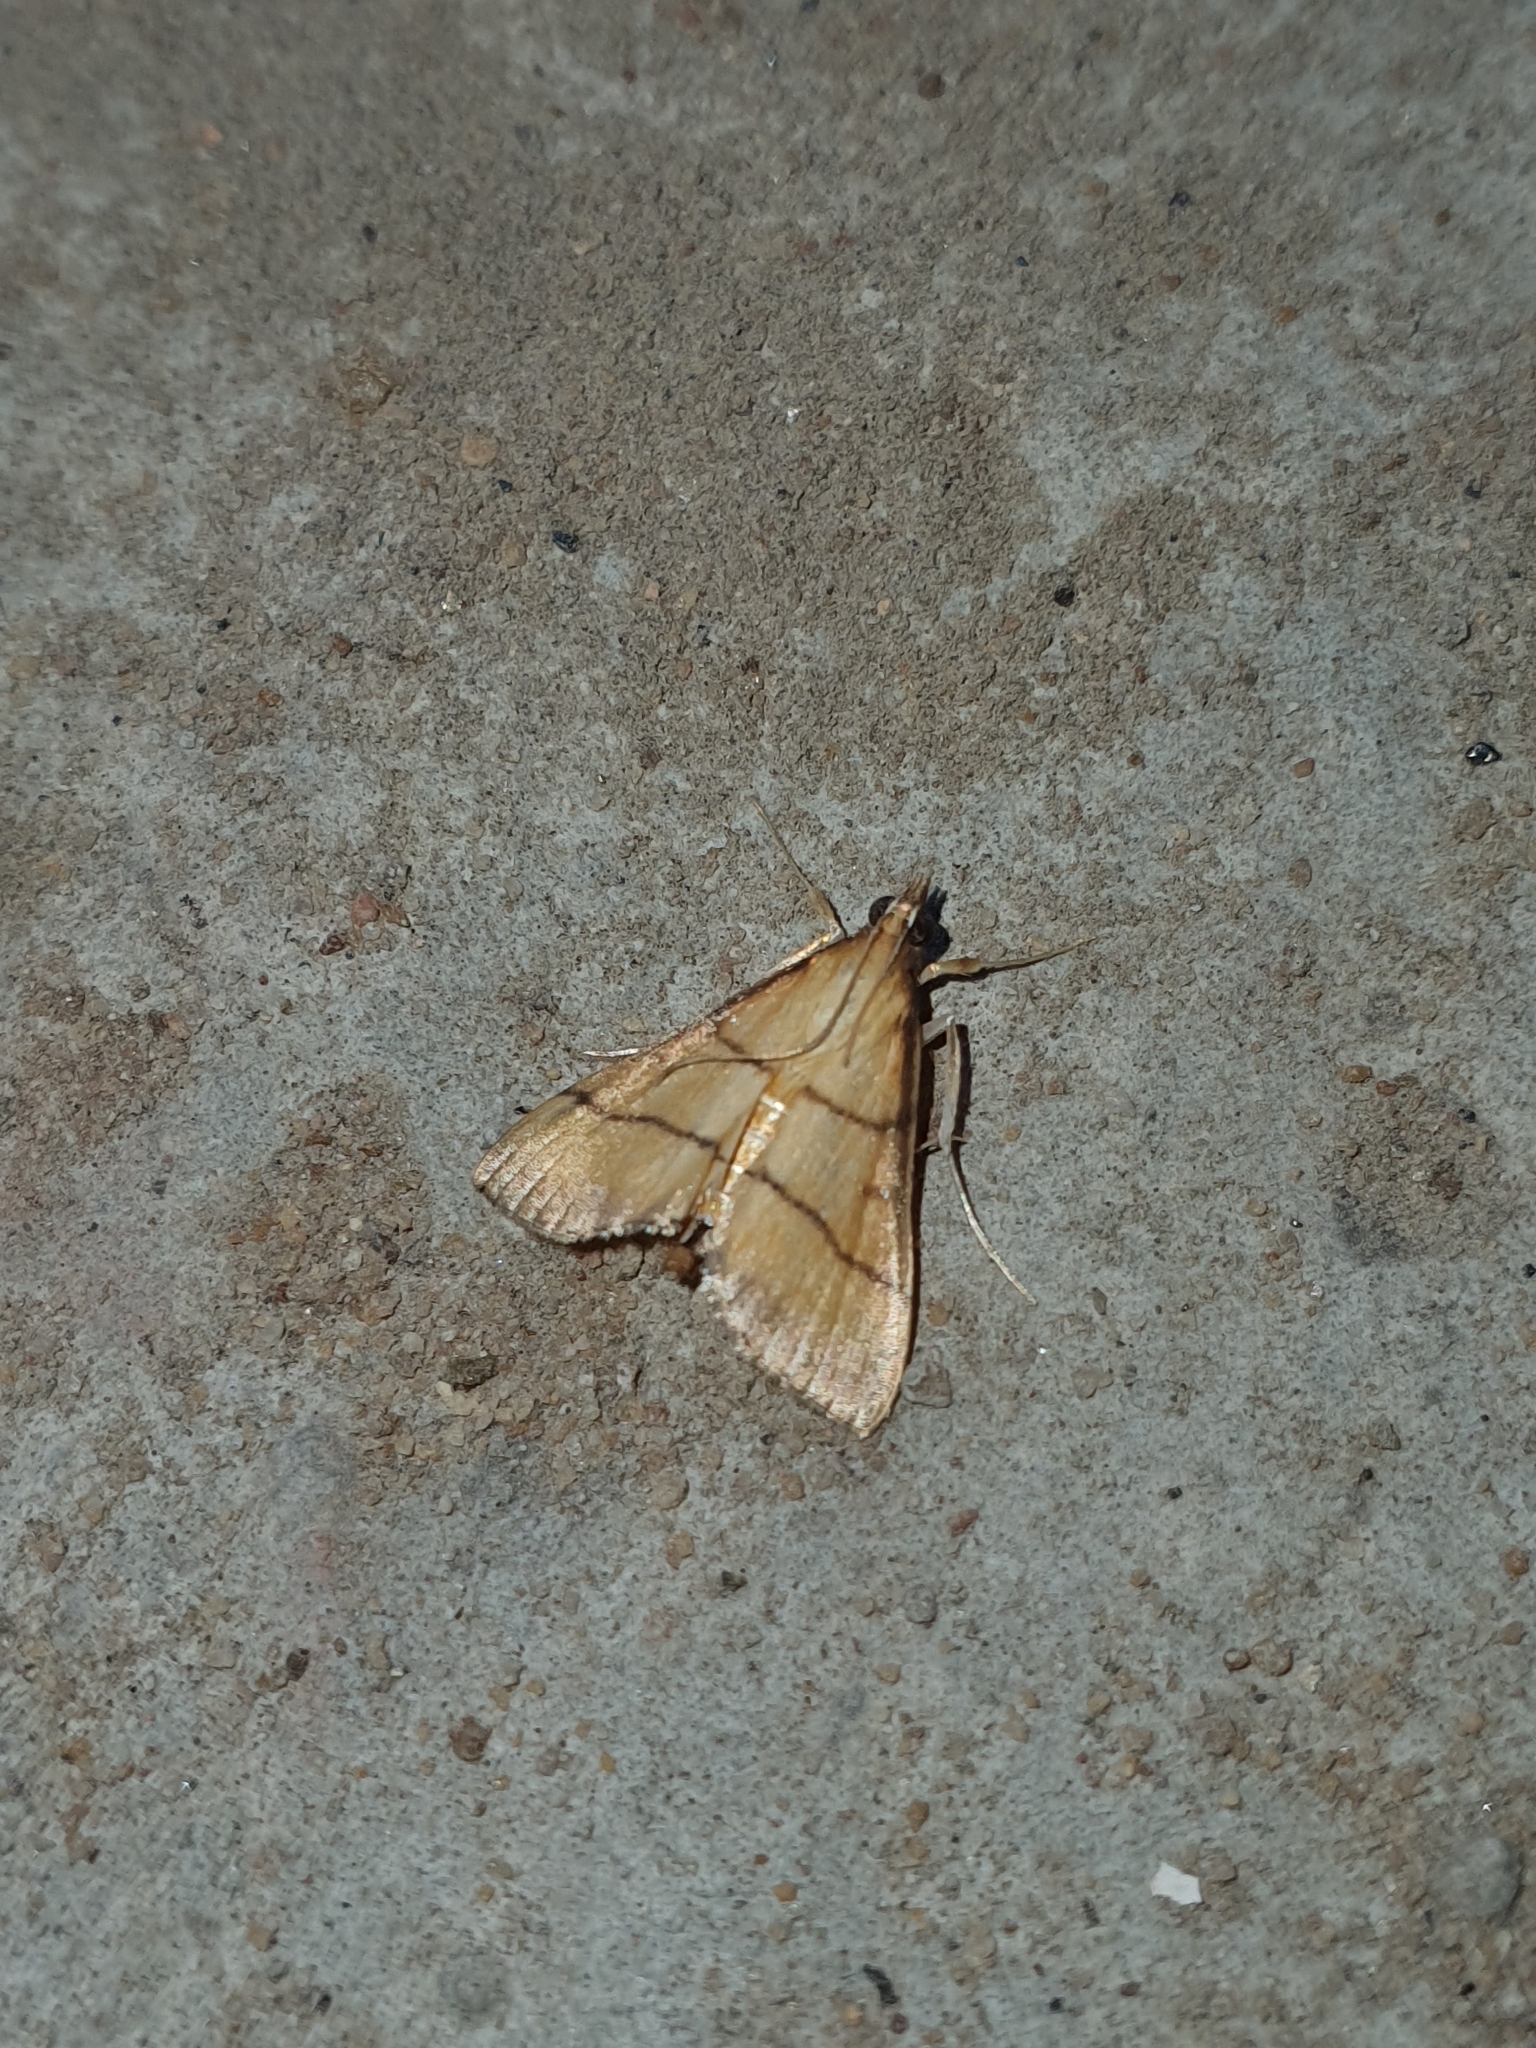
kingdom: Animalia
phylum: Arthropoda
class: Insecta
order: Lepidoptera
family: Crambidae
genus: Cnaphalocrocis
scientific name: Cnaphalocrocis medinalis
